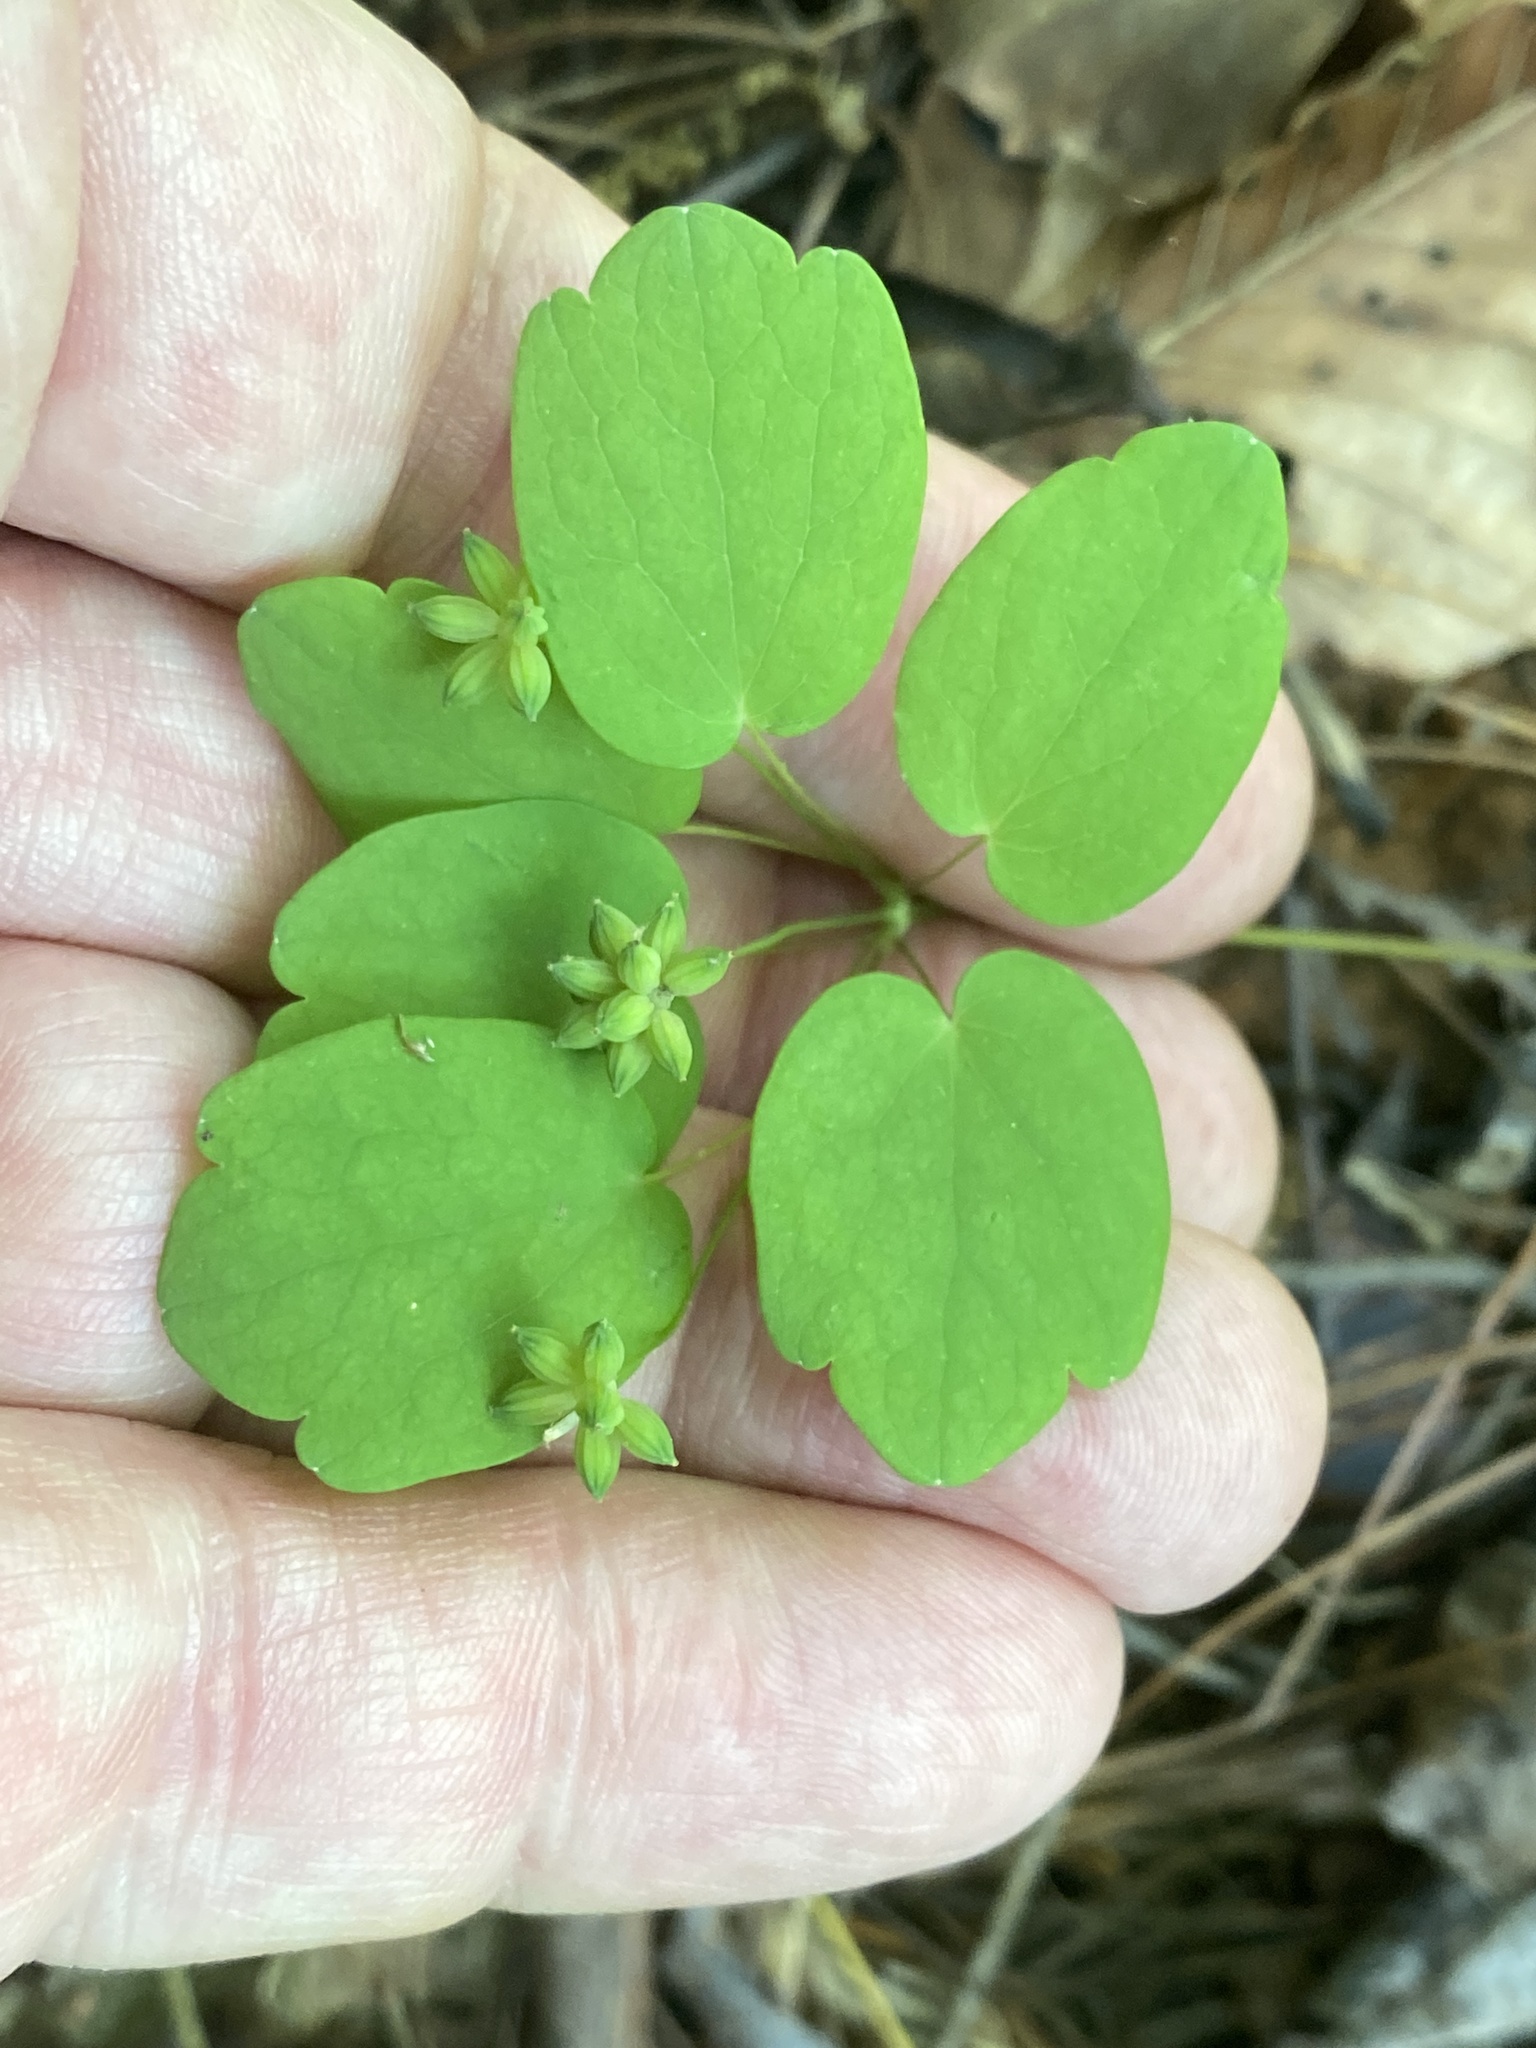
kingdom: Plantae
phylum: Tracheophyta
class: Magnoliopsida
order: Ranunculales
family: Ranunculaceae
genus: Thalictrum
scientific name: Thalictrum thalictroides
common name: Rue-anemone
